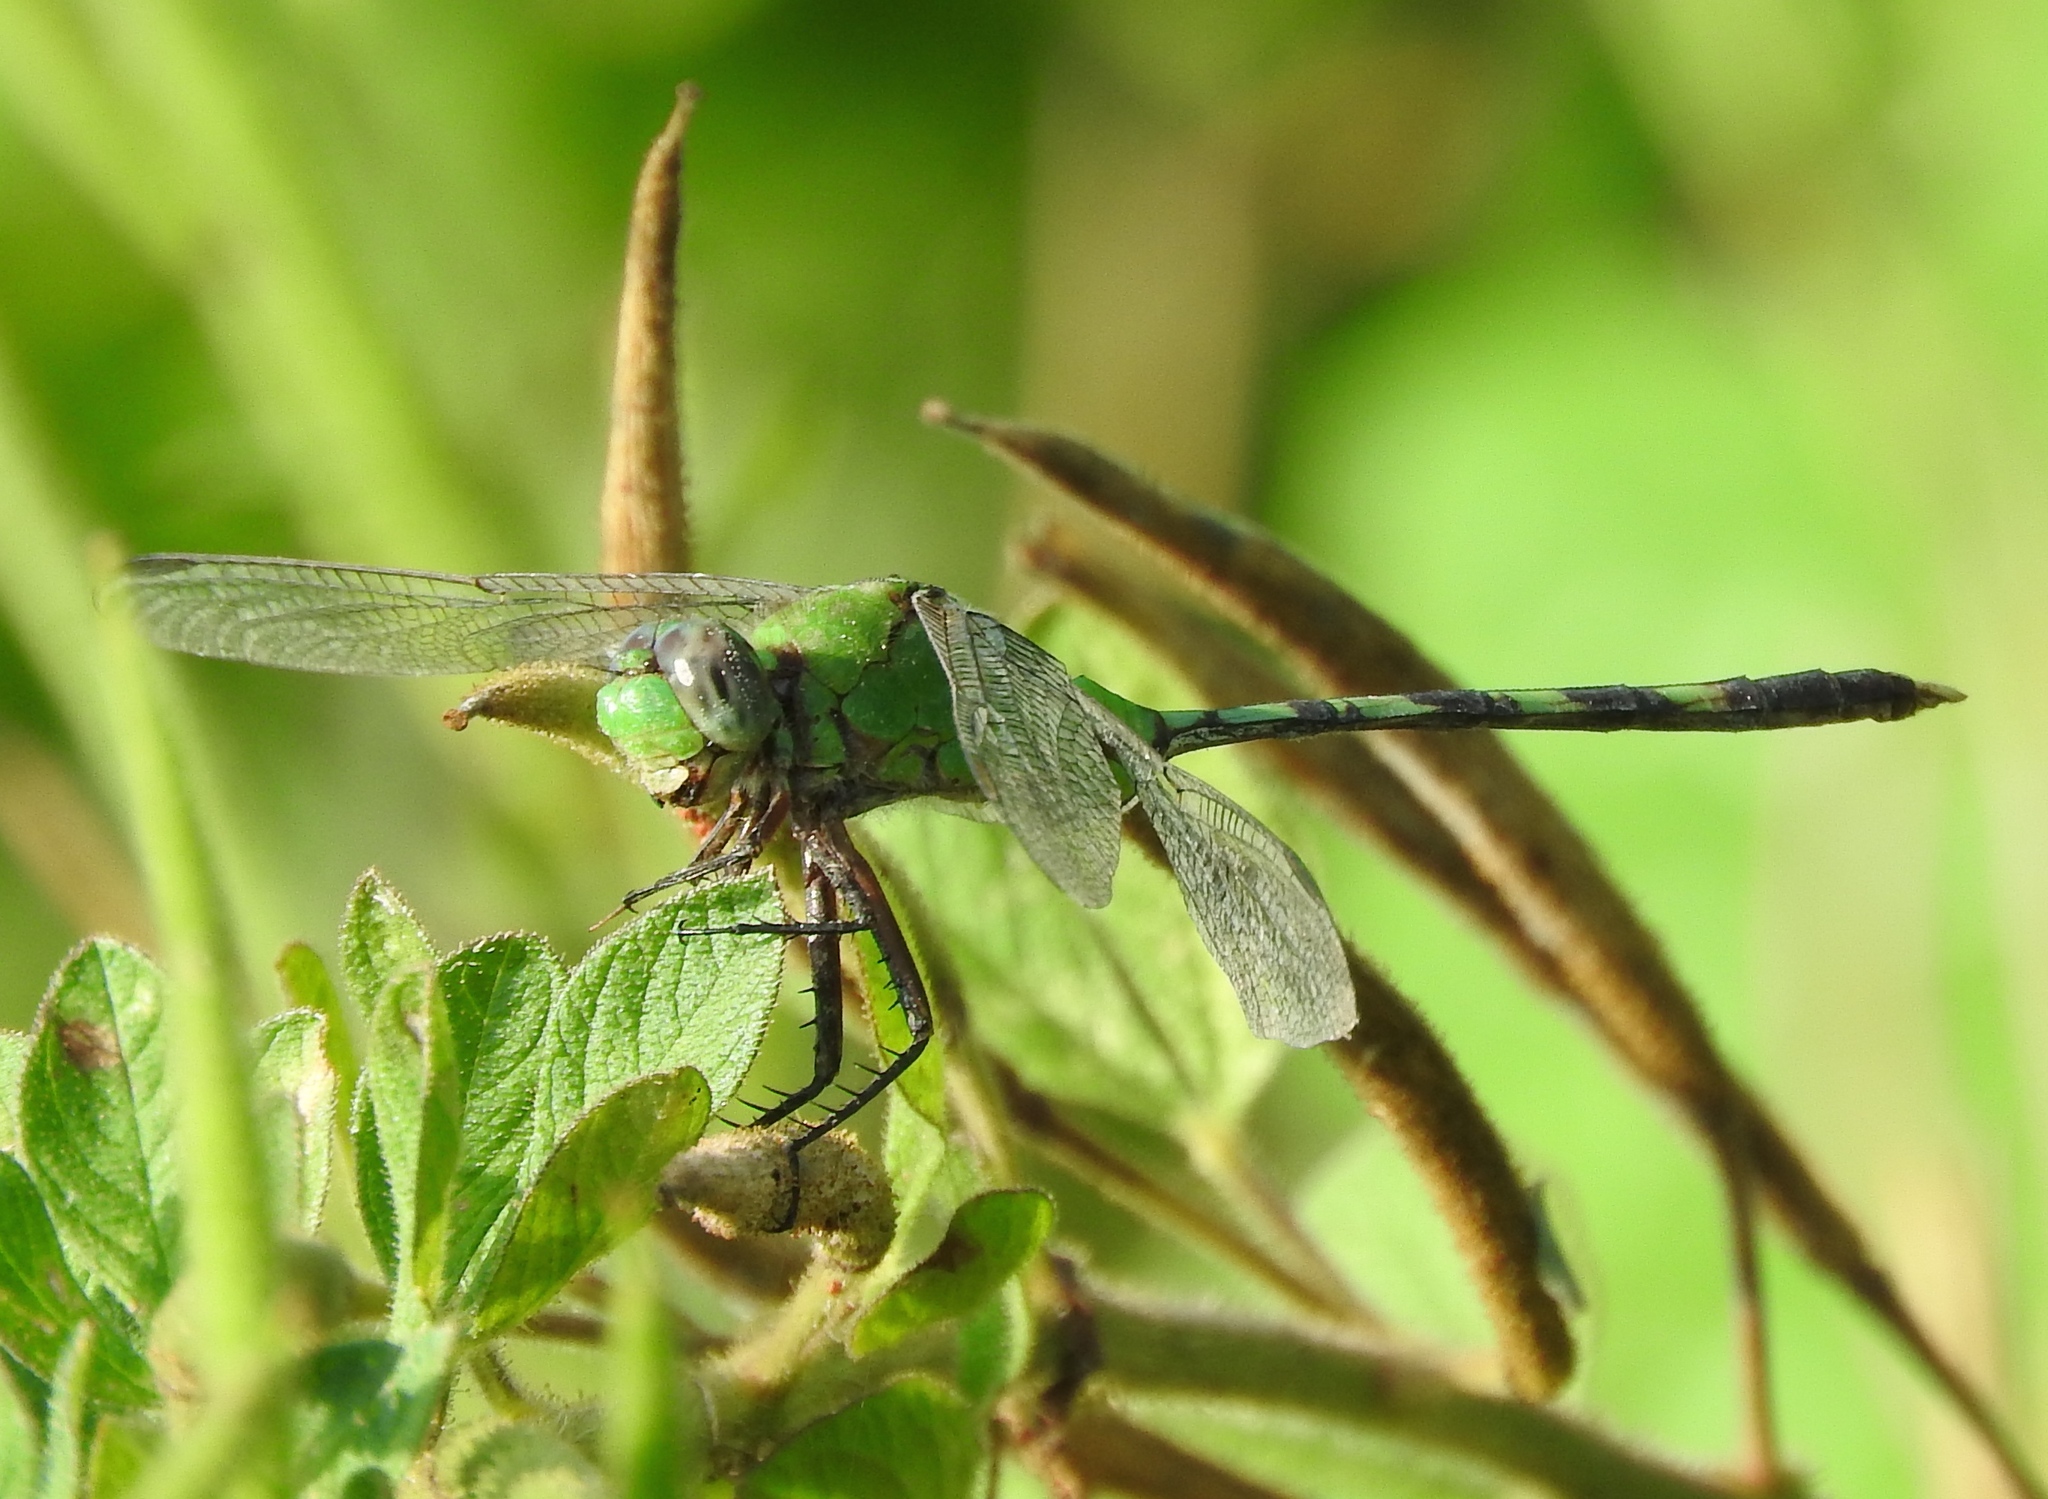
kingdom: Animalia
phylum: Arthropoda
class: Insecta
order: Odonata
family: Libellulidae
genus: Erythemis
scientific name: Erythemis vesiculosa
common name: Great pondhawk
